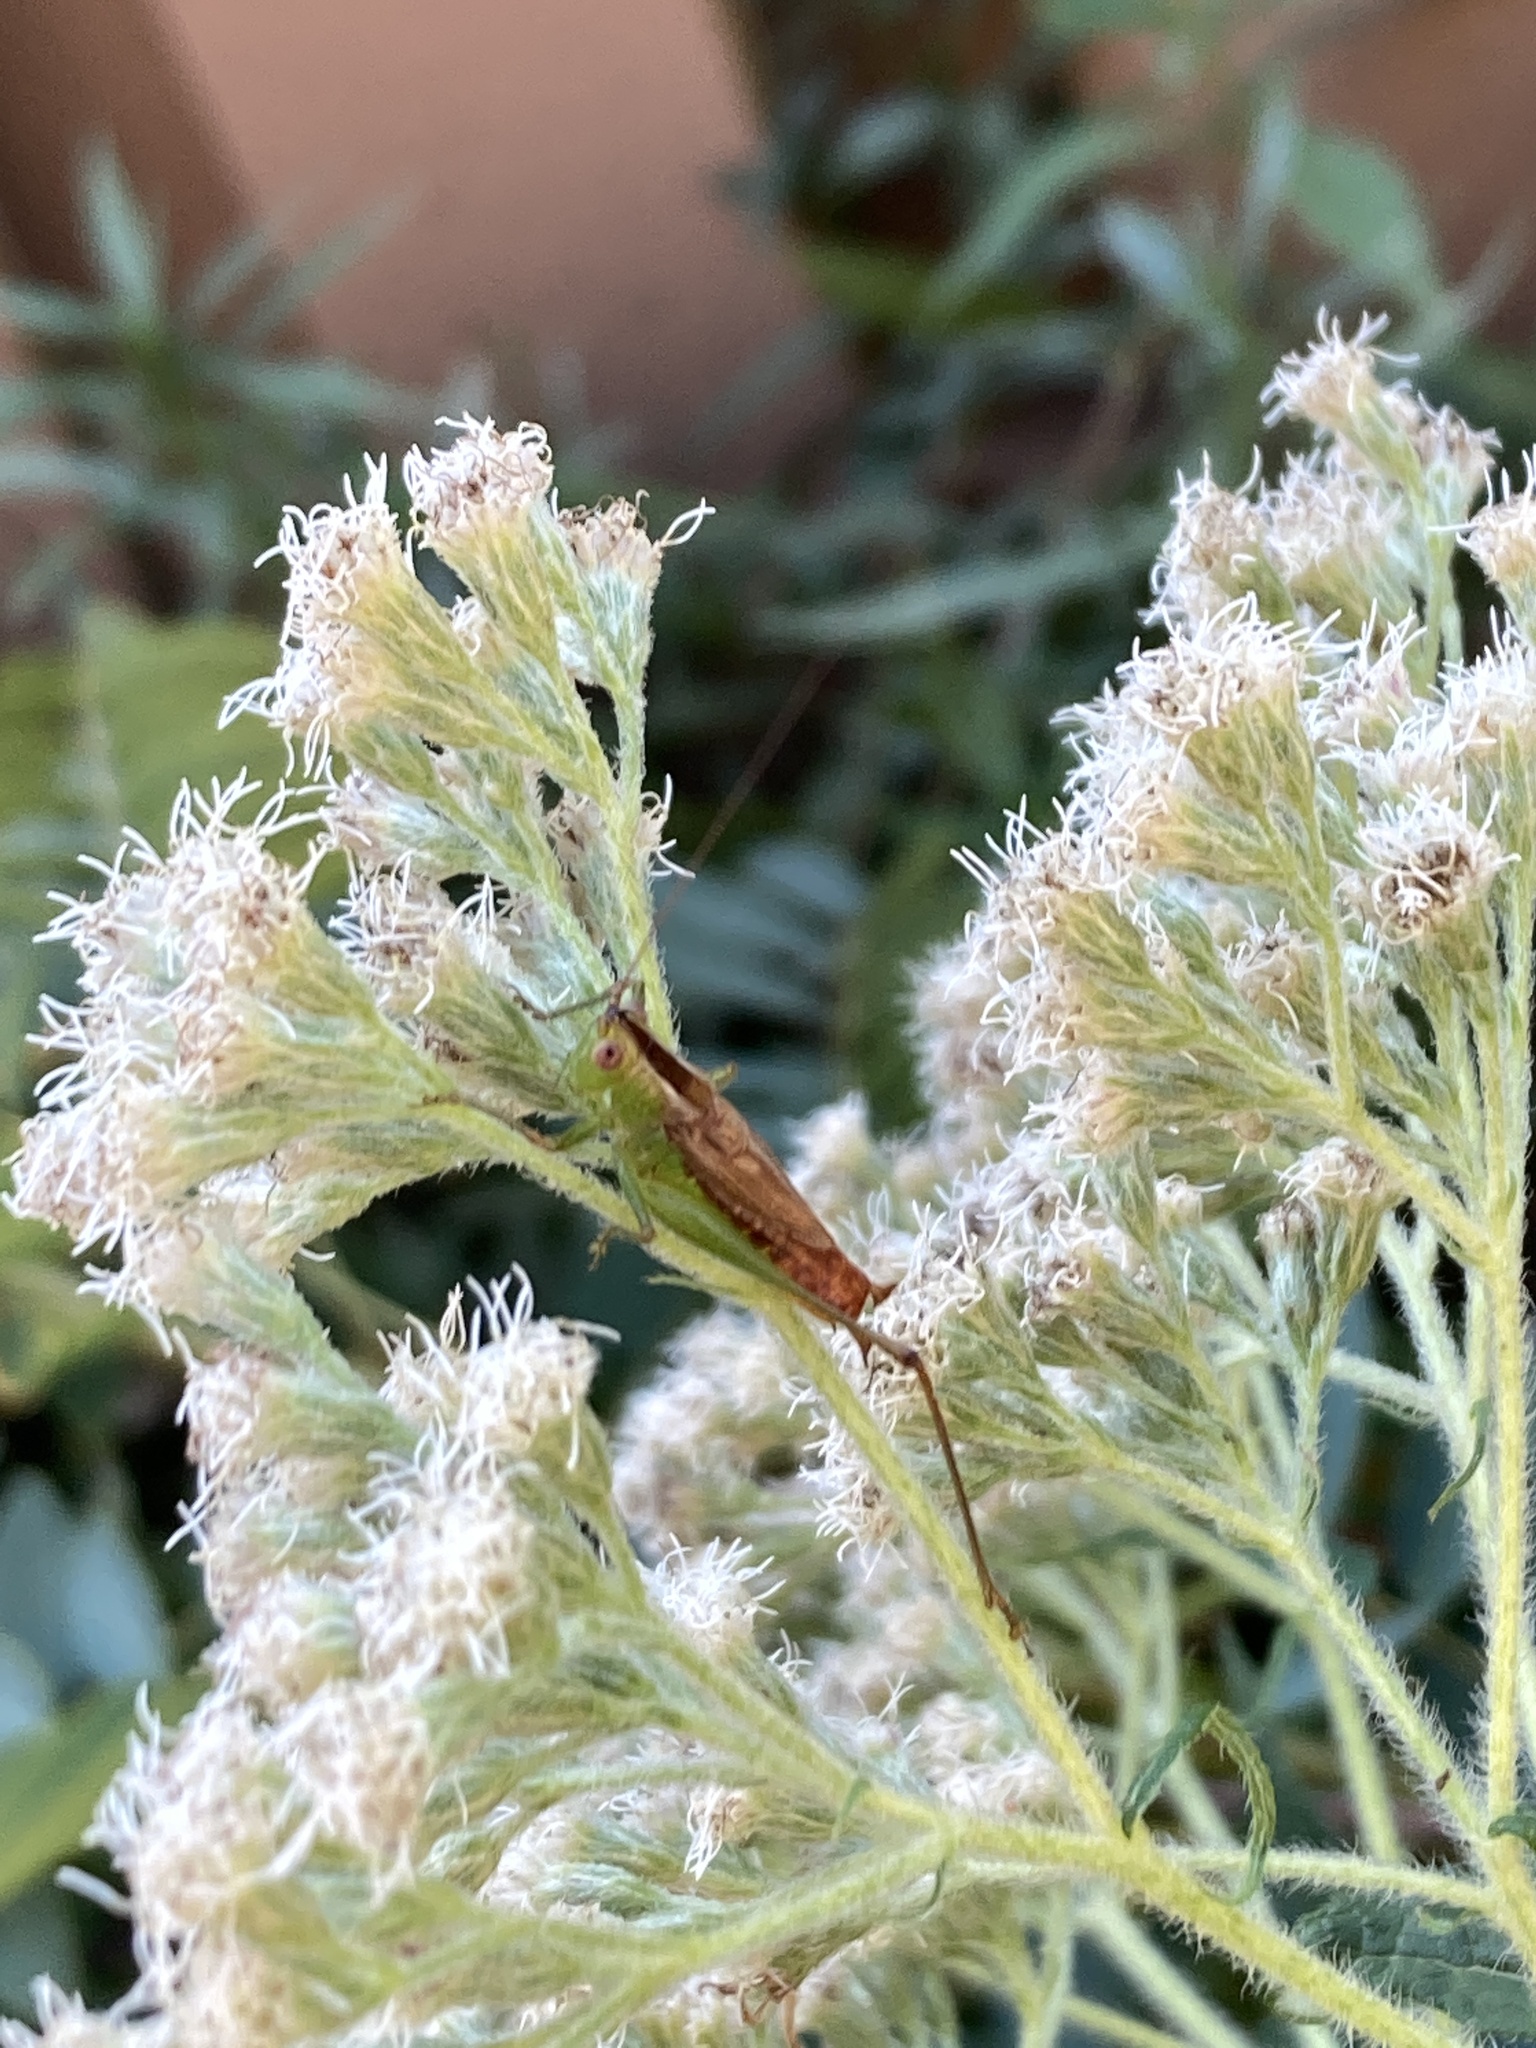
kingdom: Animalia
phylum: Arthropoda
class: Insecta
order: Orthoptera
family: Tettigoniidae
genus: Conocephalus
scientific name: Conocephalus brevipennis
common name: Short-winged meadow katydid
